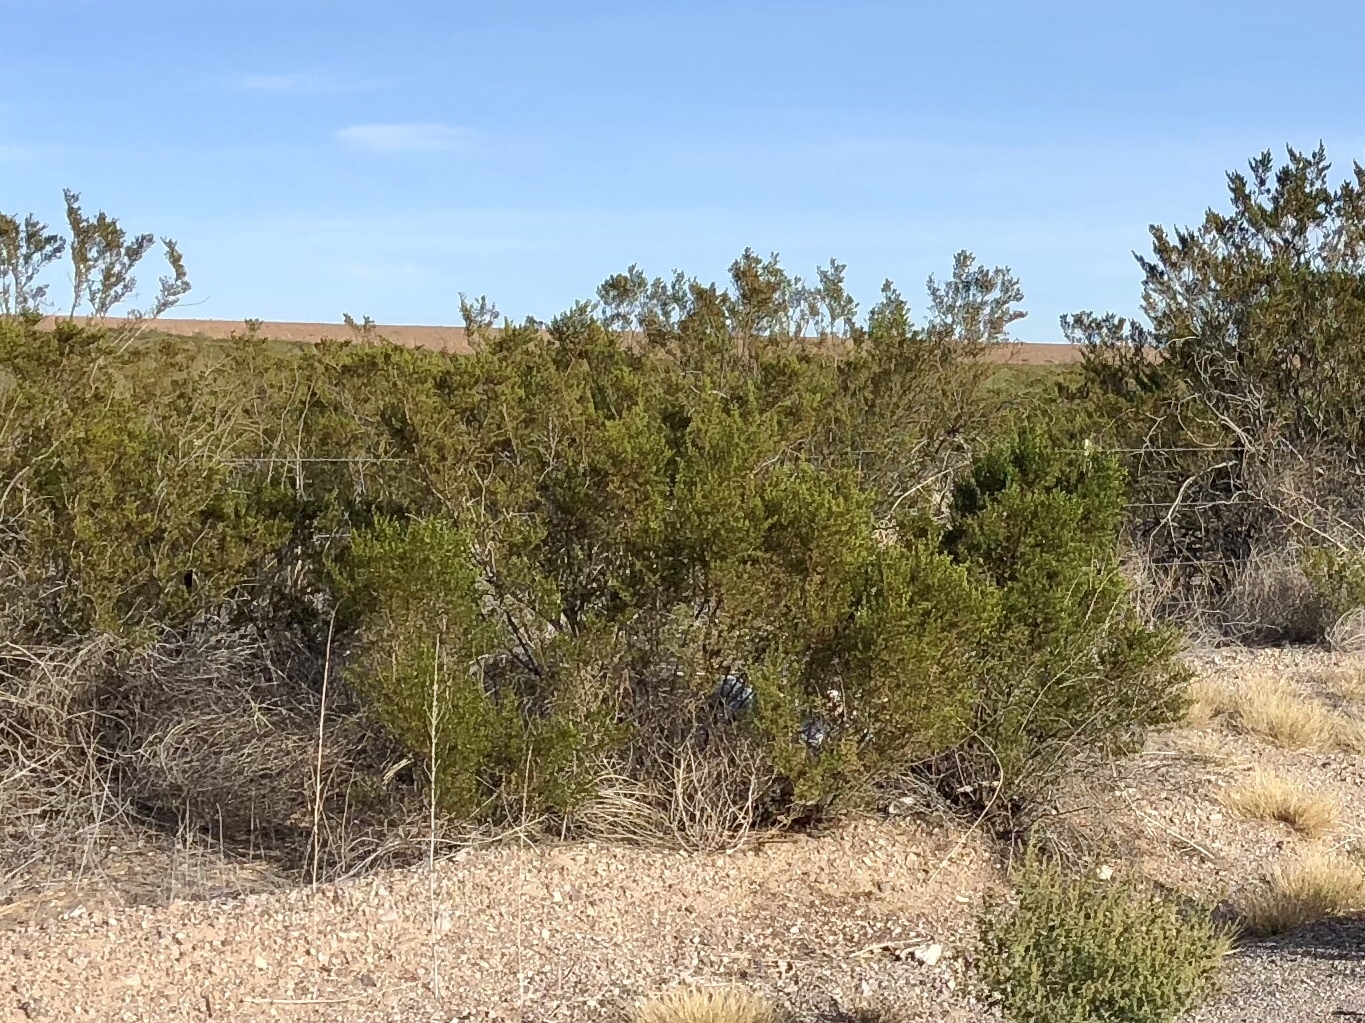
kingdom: Plantae
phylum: Tracheophyta
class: Magnoliopsida
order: Zygophyllales
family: Zygophyllaceae
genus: Larrea
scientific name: Larrea tridentata
